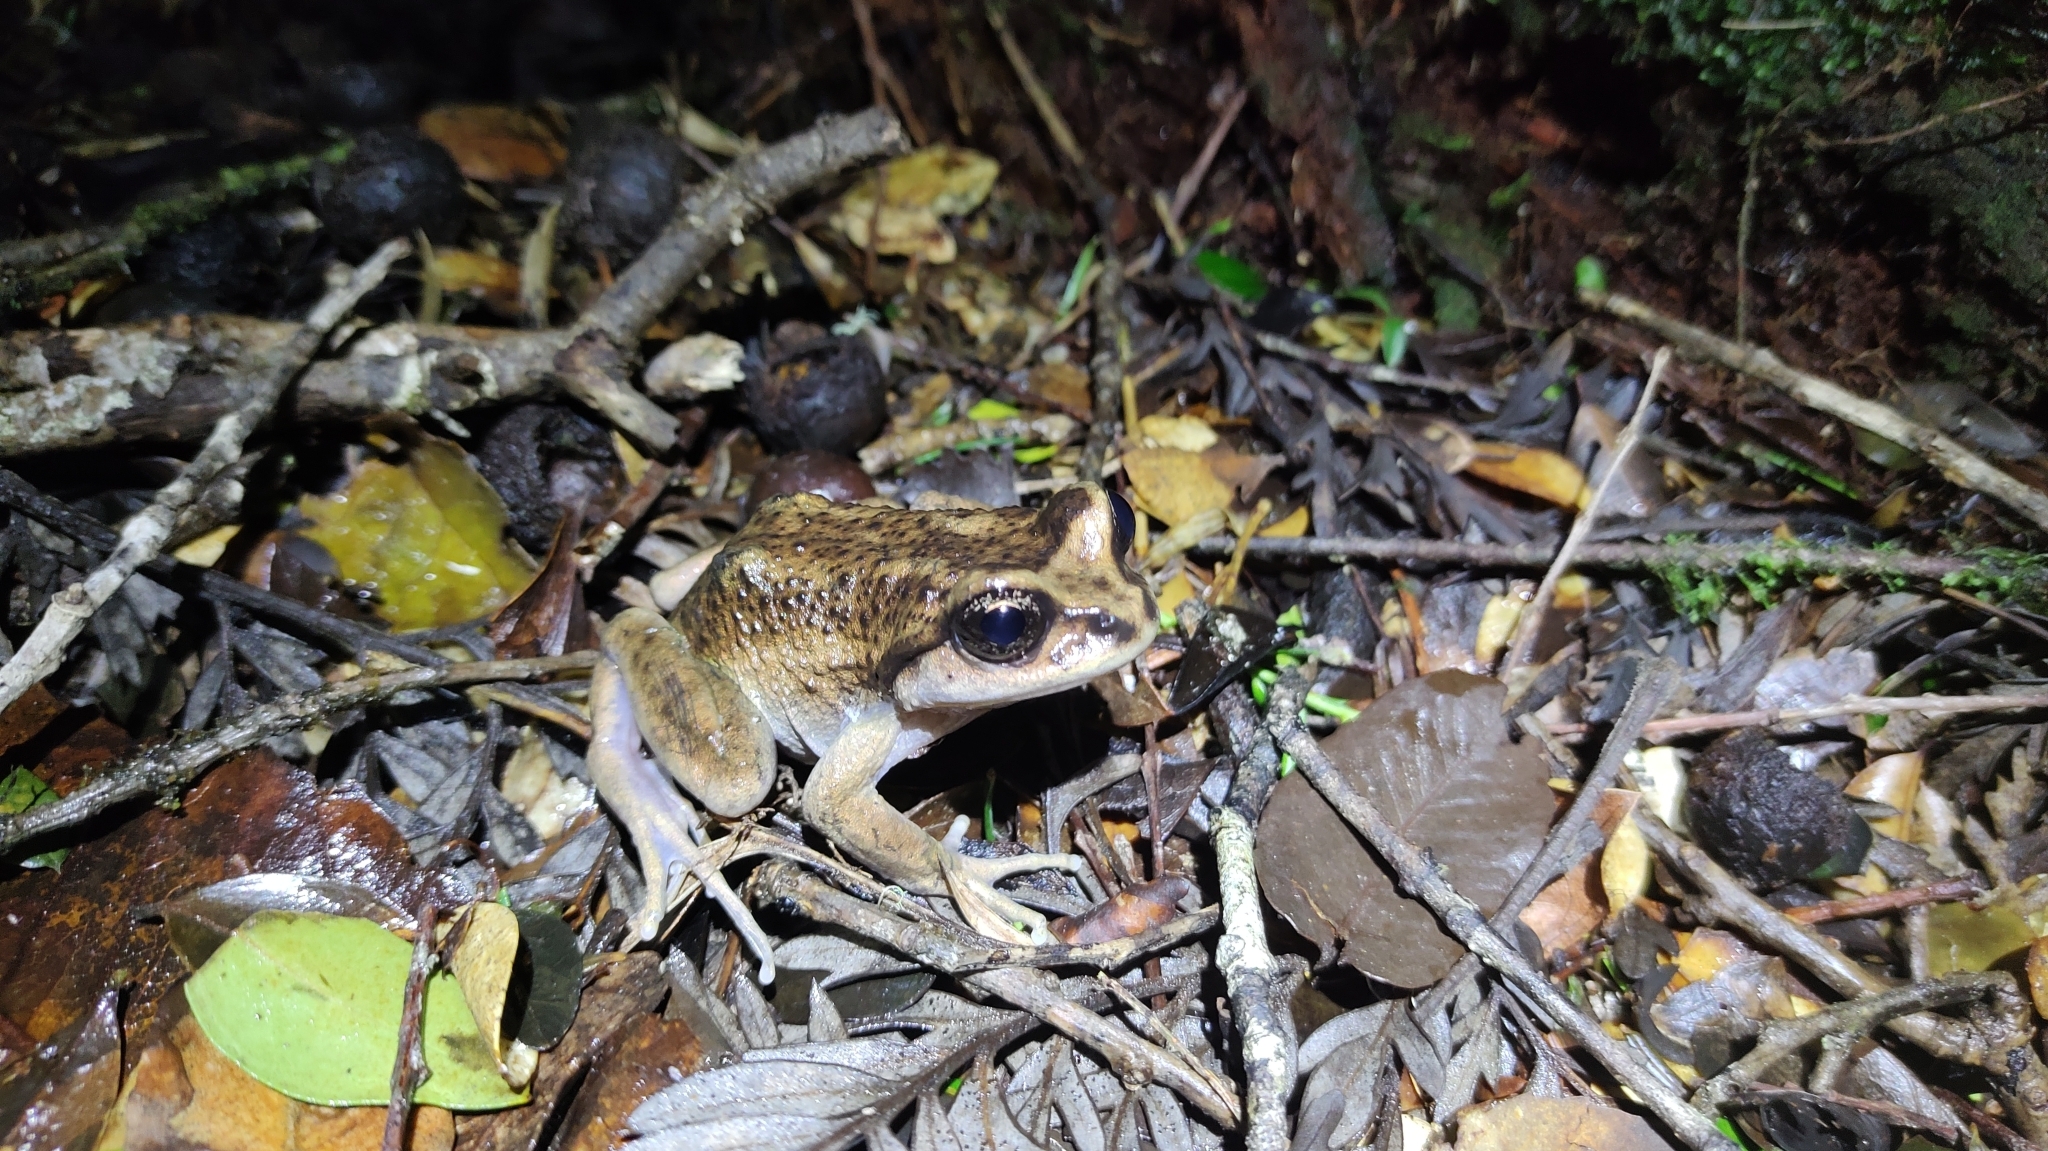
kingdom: Animalia
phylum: Chordata
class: Amphibia
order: Anura
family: Alsodidae
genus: Alsodes
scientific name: Alsodes valdiviensis
